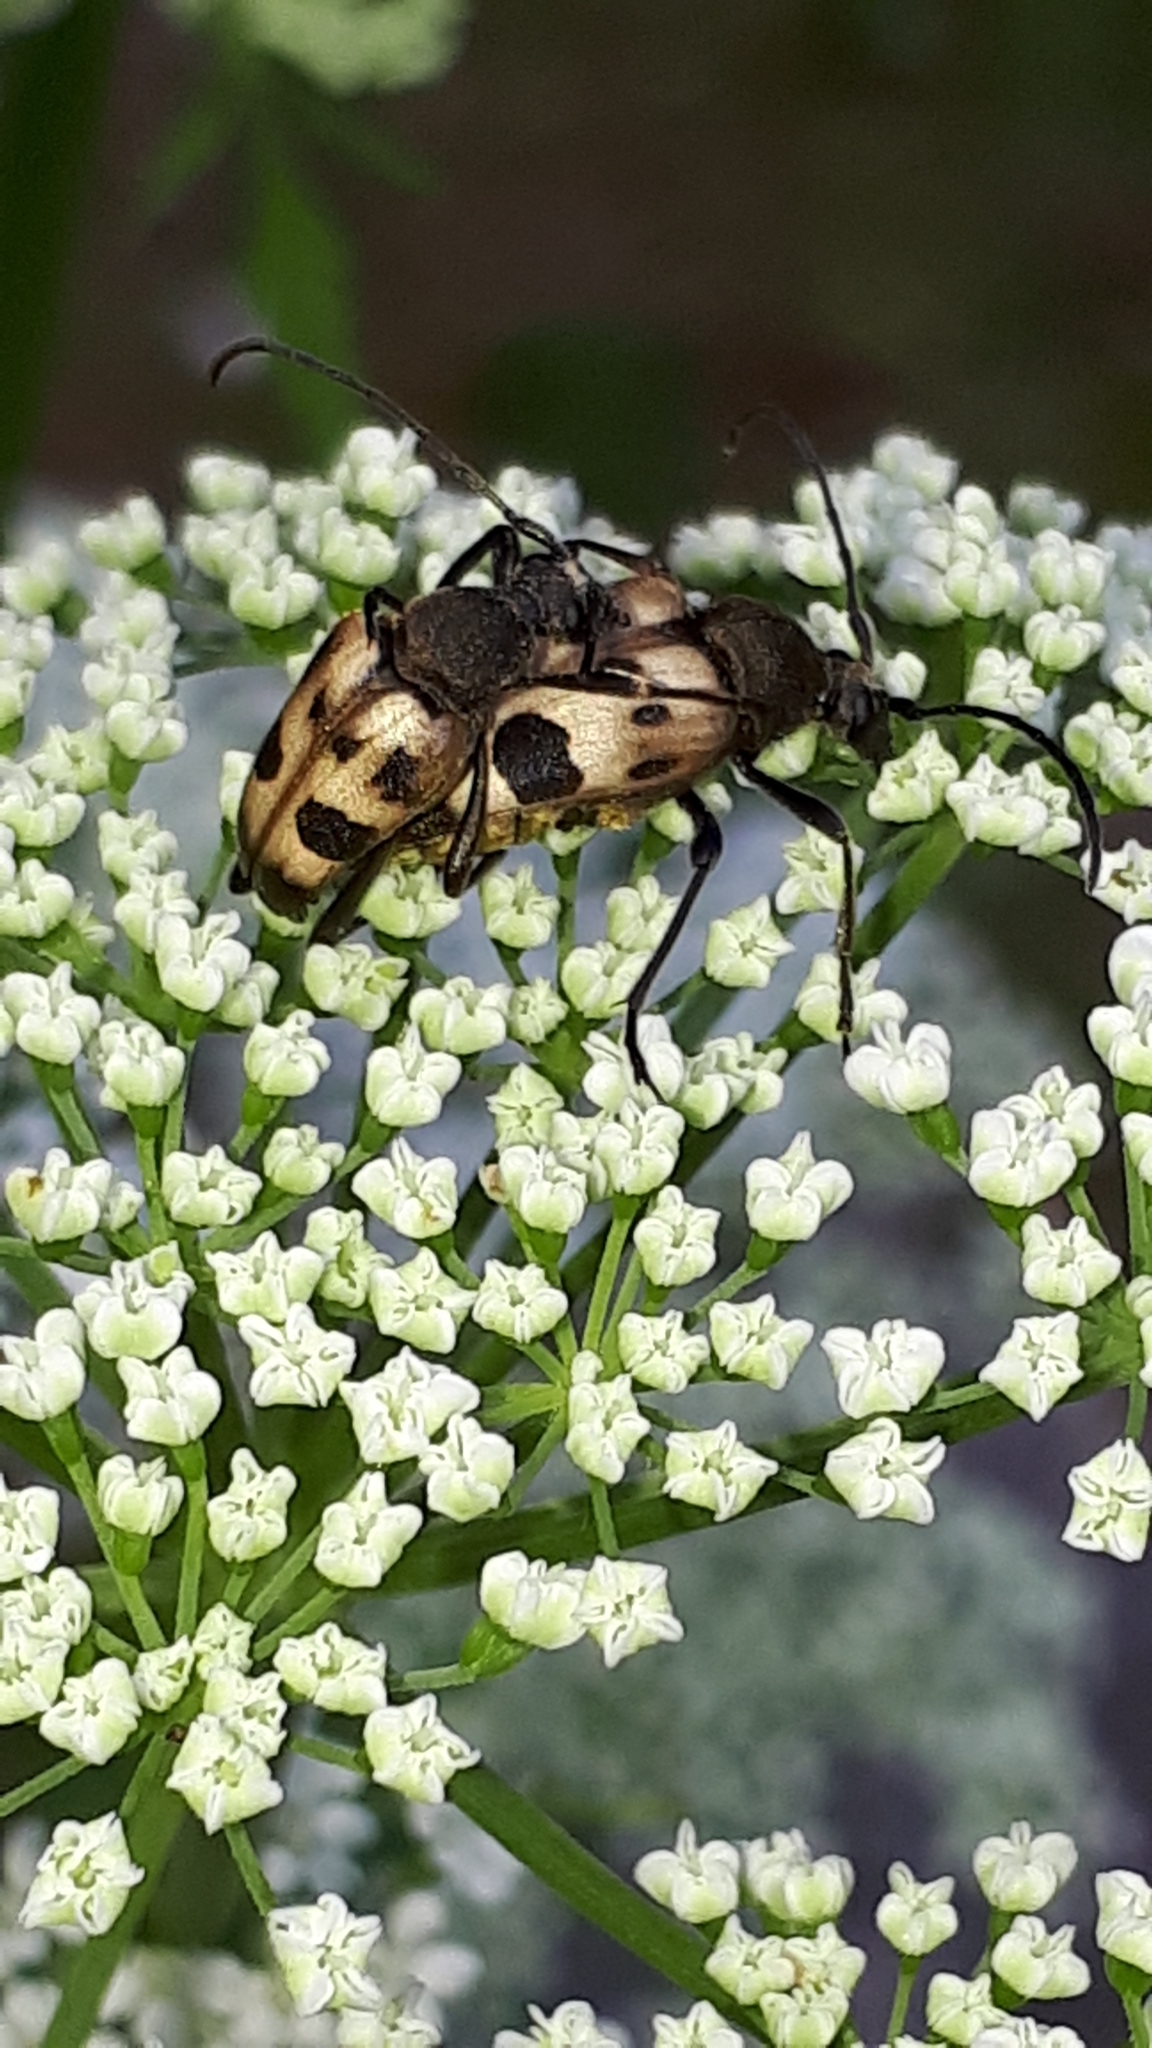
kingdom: Animalia
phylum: Arthropoda
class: Insecta
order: Coleoptera
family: Cerambycidae
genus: Pachytodes
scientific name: Pachytodes cerambyciformis
